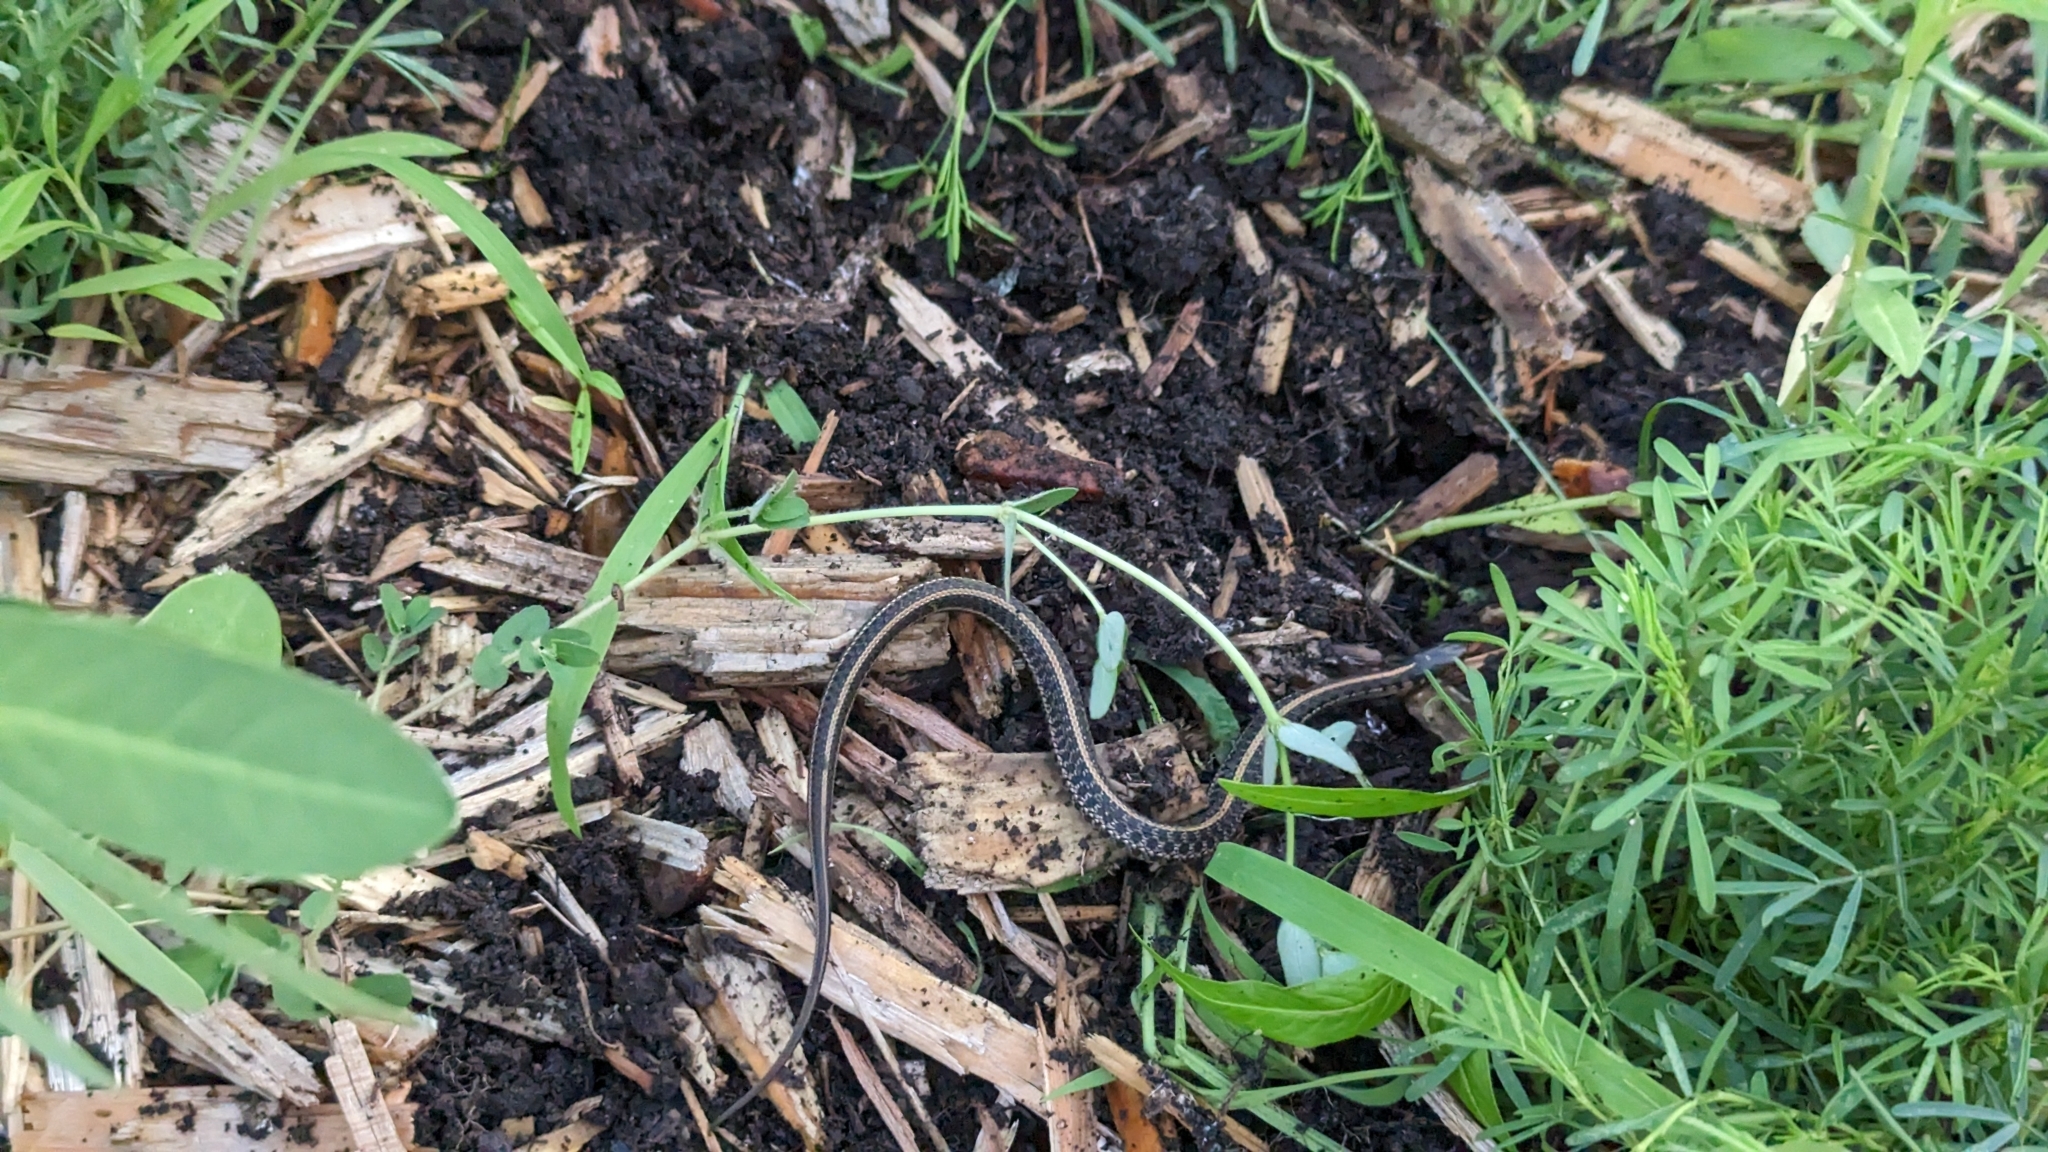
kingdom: Animalia
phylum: Chordata
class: Squamata
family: Colubridae
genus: Thamnophis
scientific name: Thamnophis radix
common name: Plains garter snake
